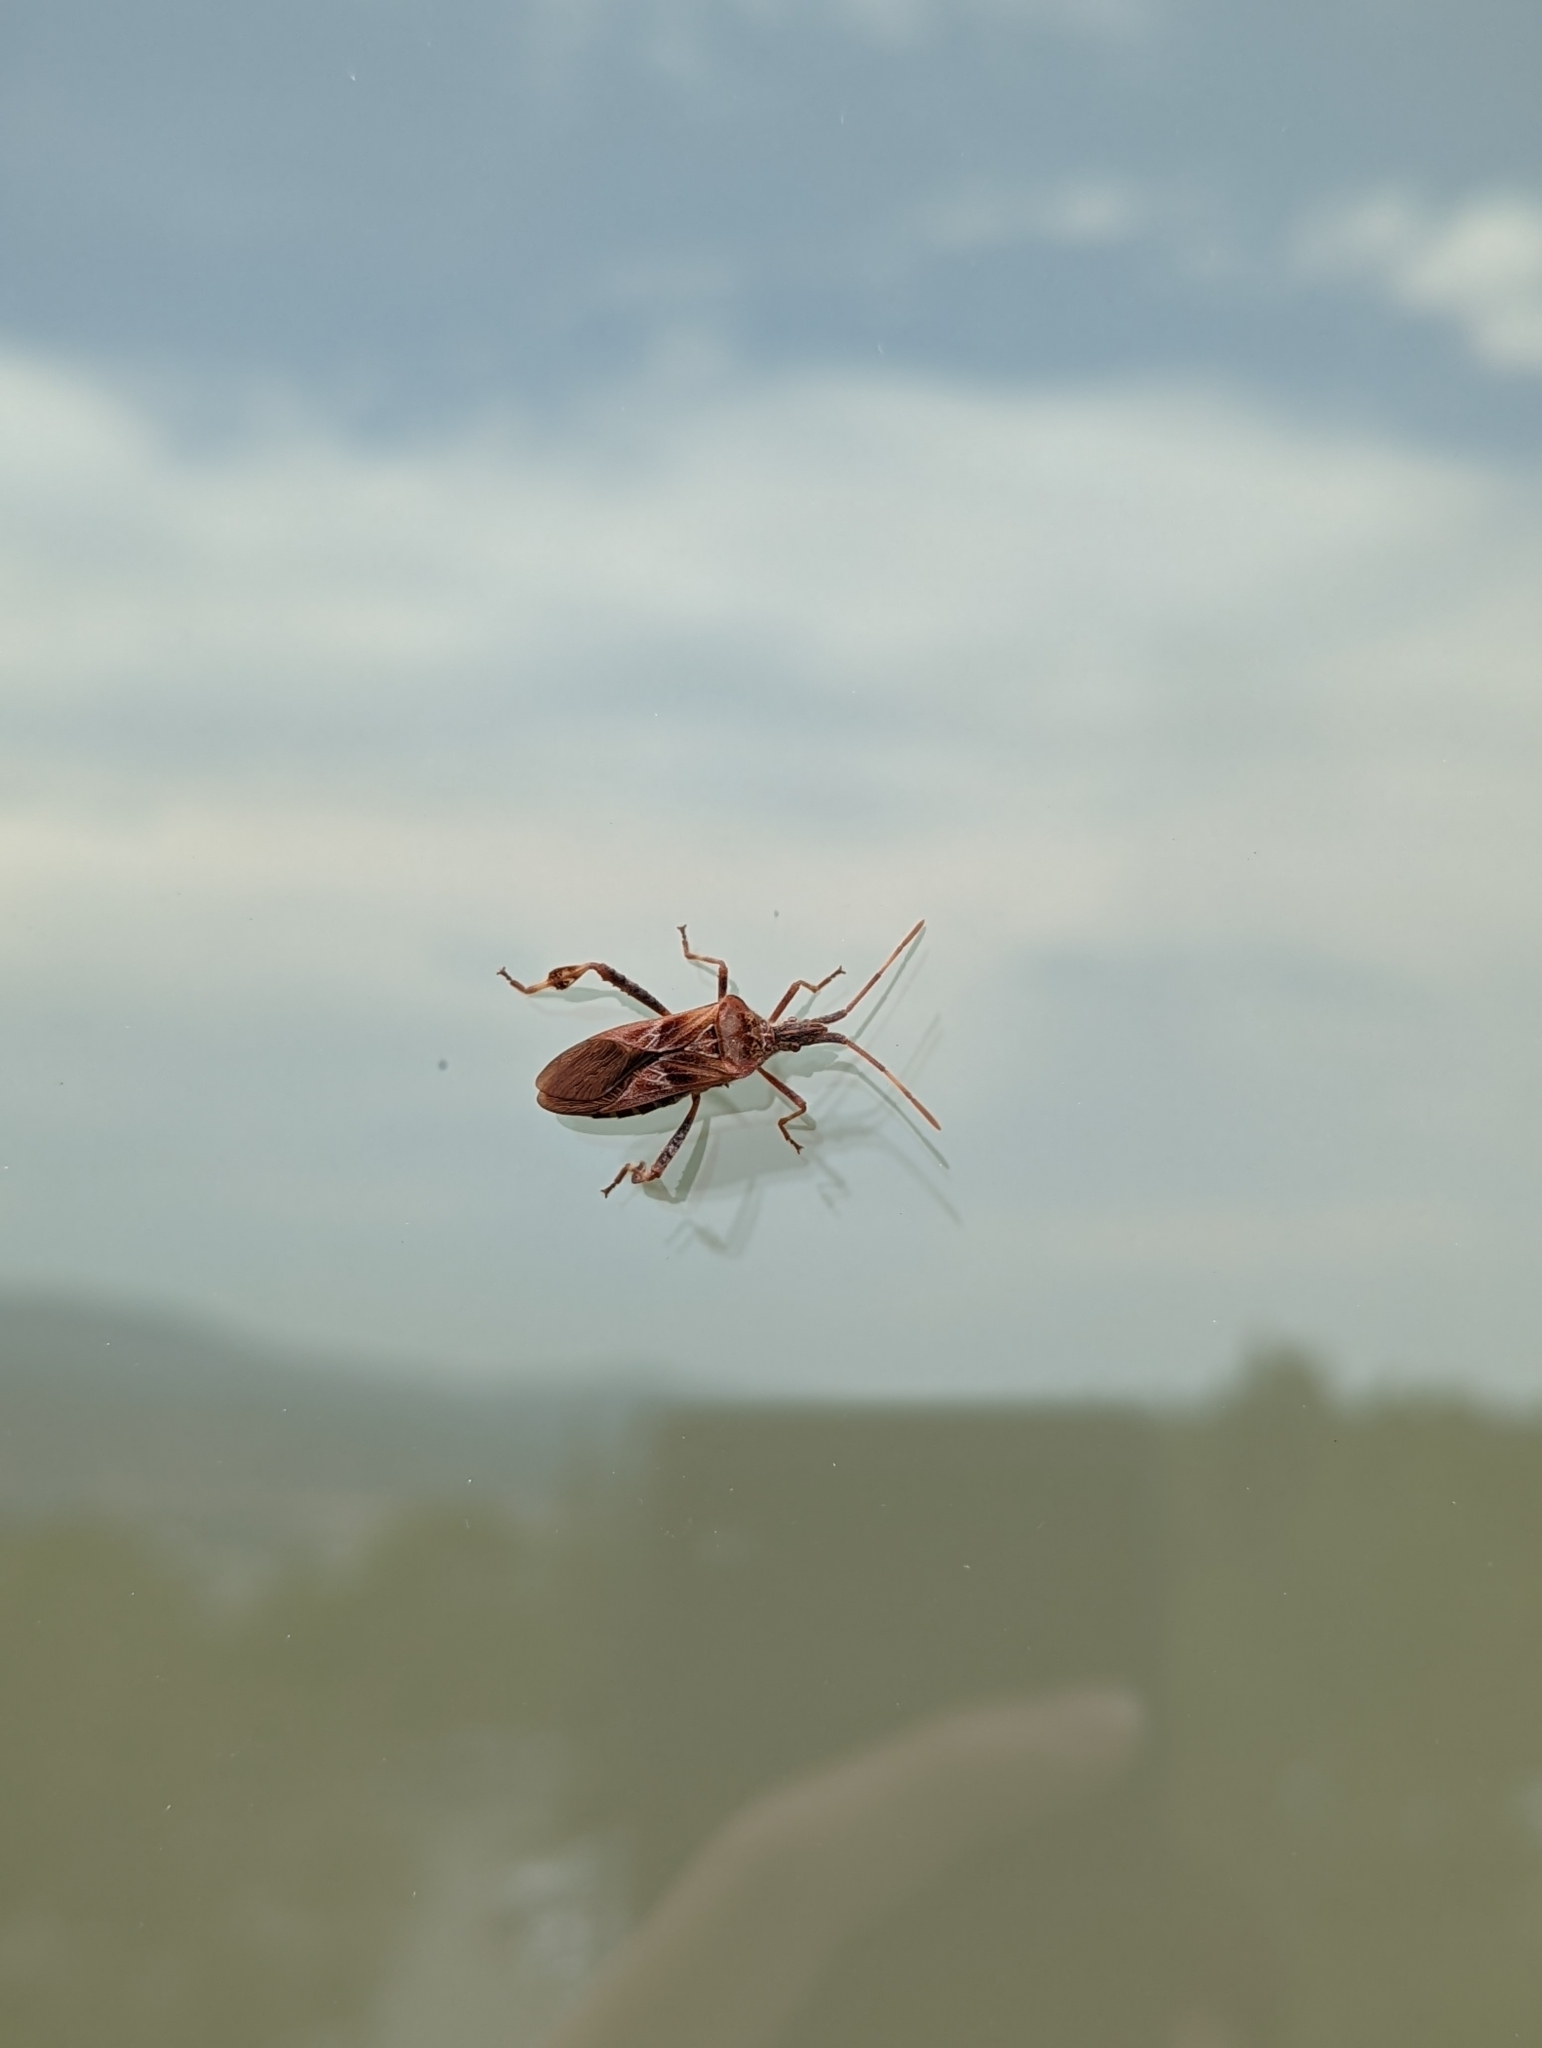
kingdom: Animalia
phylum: Arthropoda
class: Insecta
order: Hemiptera
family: Coreidae
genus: Leptoglossus
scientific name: Leptoglossus occidentalis
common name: Western conifer-seed bug
